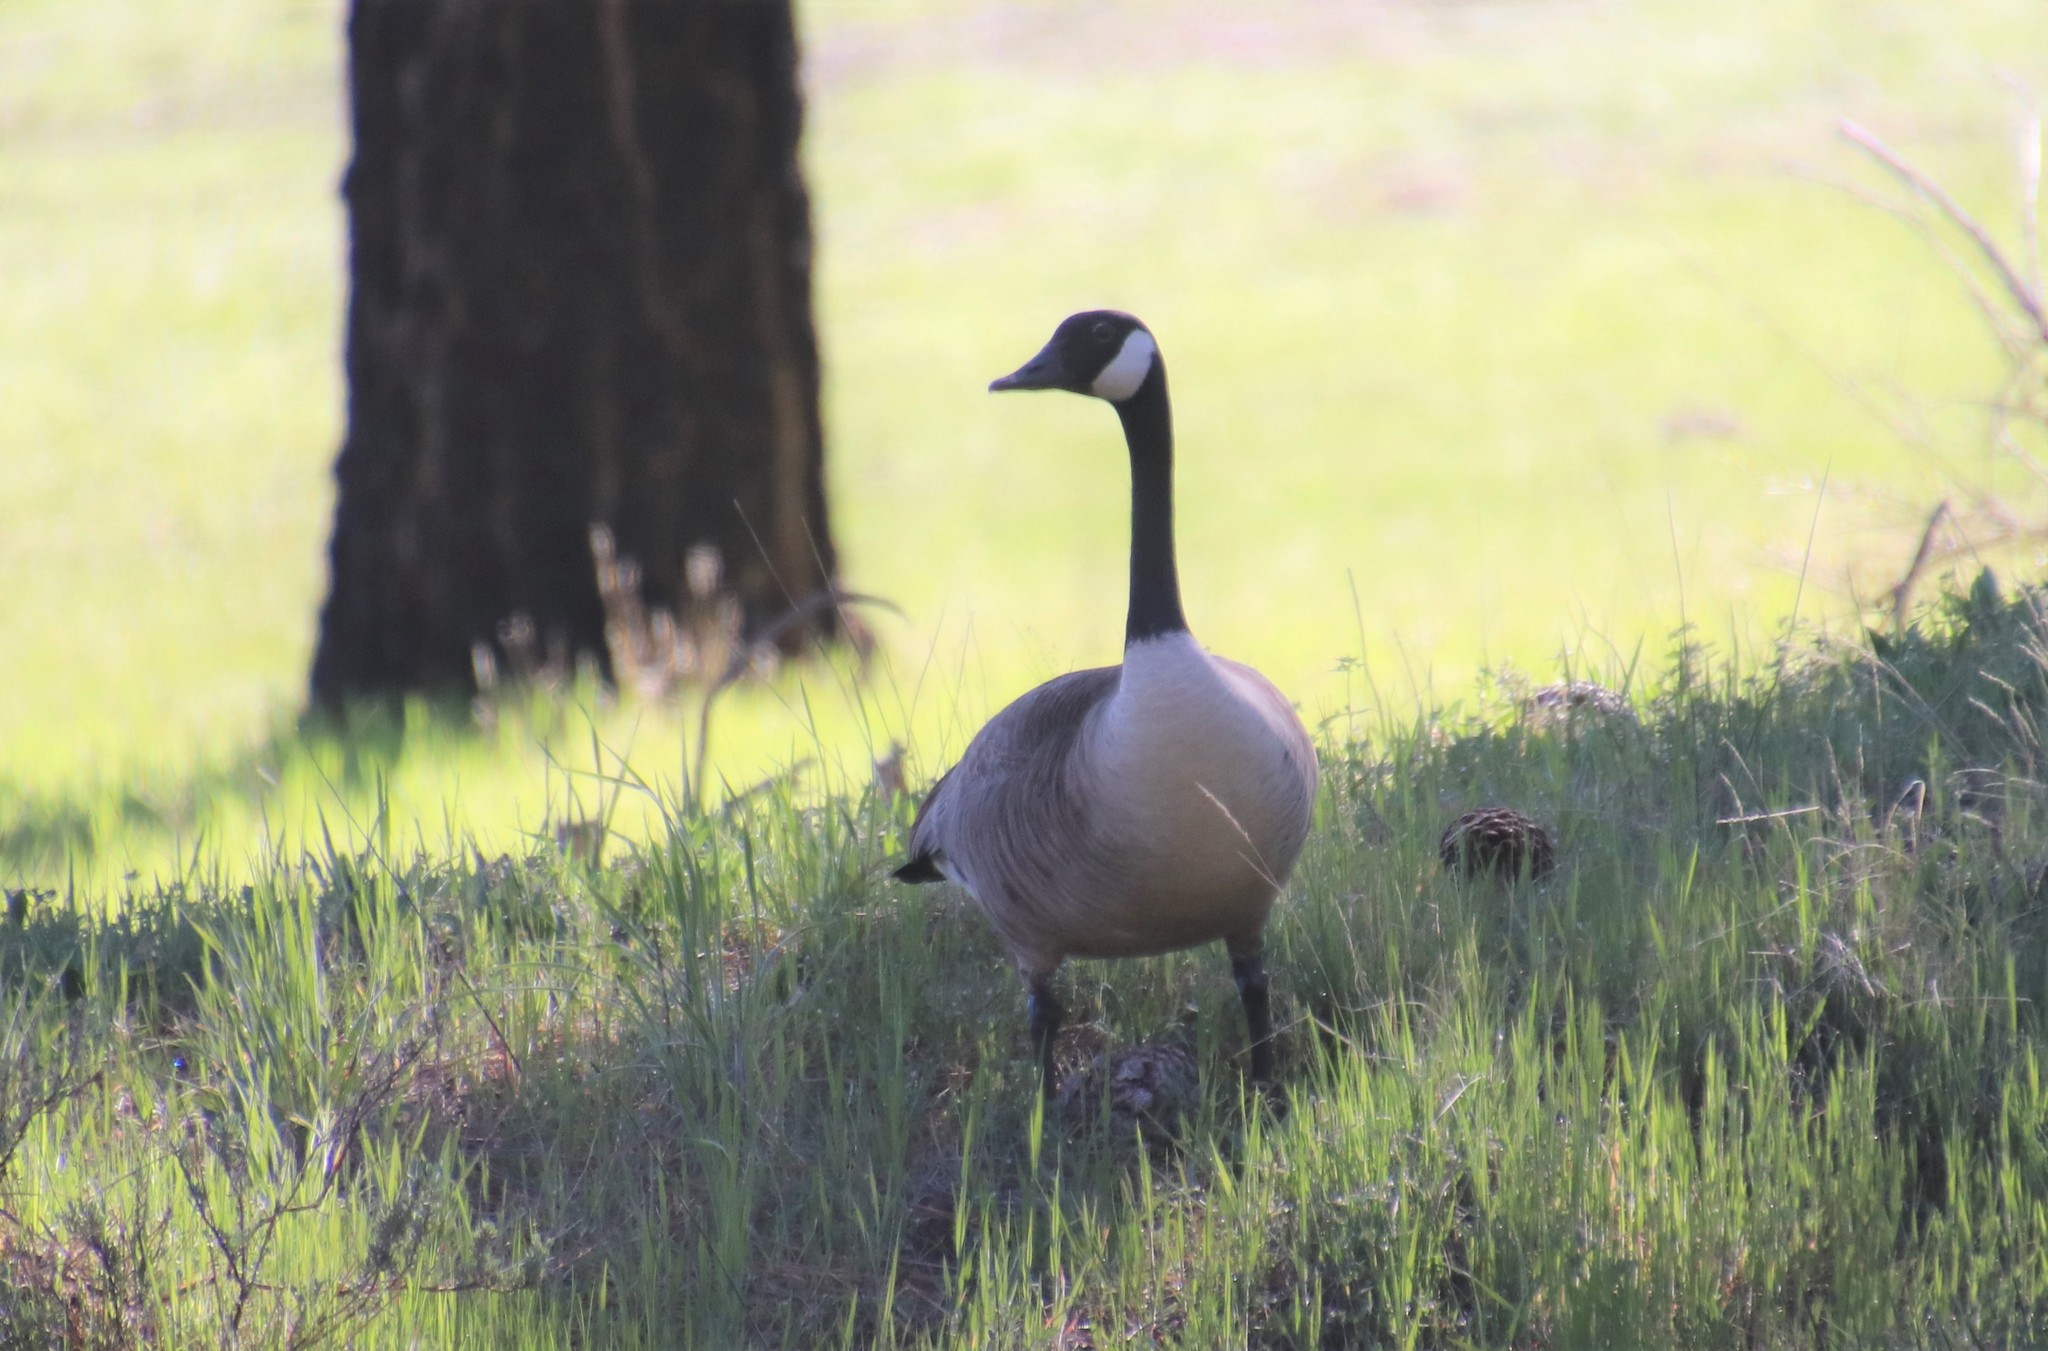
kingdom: Animalia
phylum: Chordata
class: Aves
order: Anseriformes
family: Anatidae
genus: Branta
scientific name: Branta canadensis
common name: Canada goose
